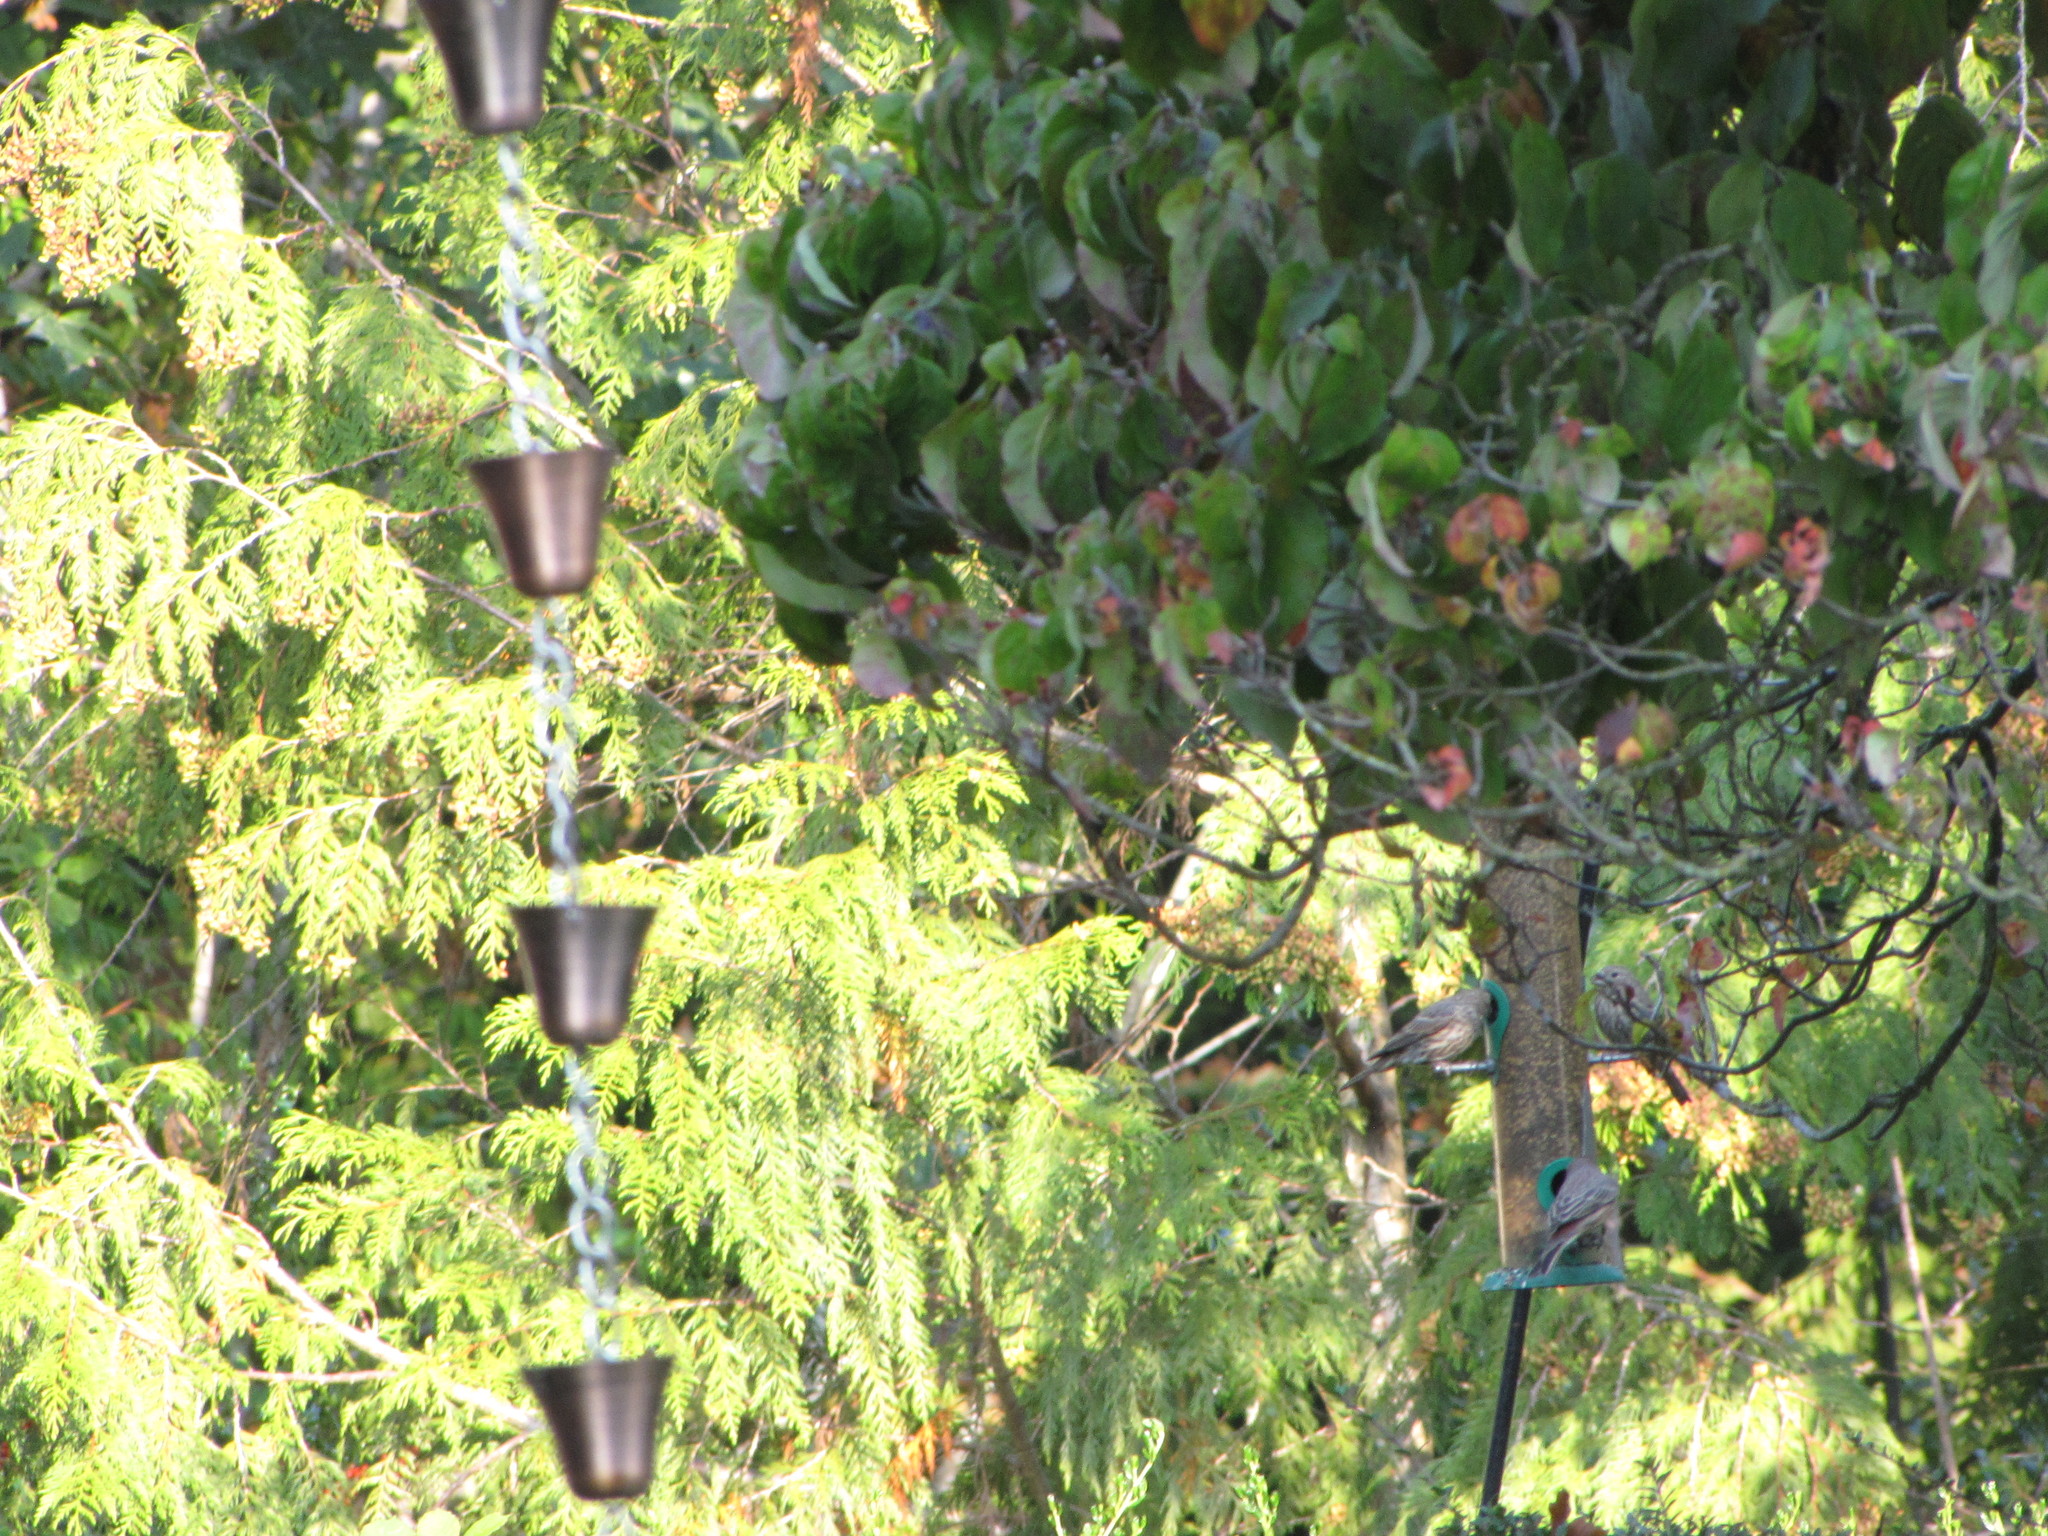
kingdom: Animalia
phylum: Chordata
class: Aves
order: Passeriformes
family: Fringillidae
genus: Haemorhous
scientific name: Haemorhous mexicanus
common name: House finch
